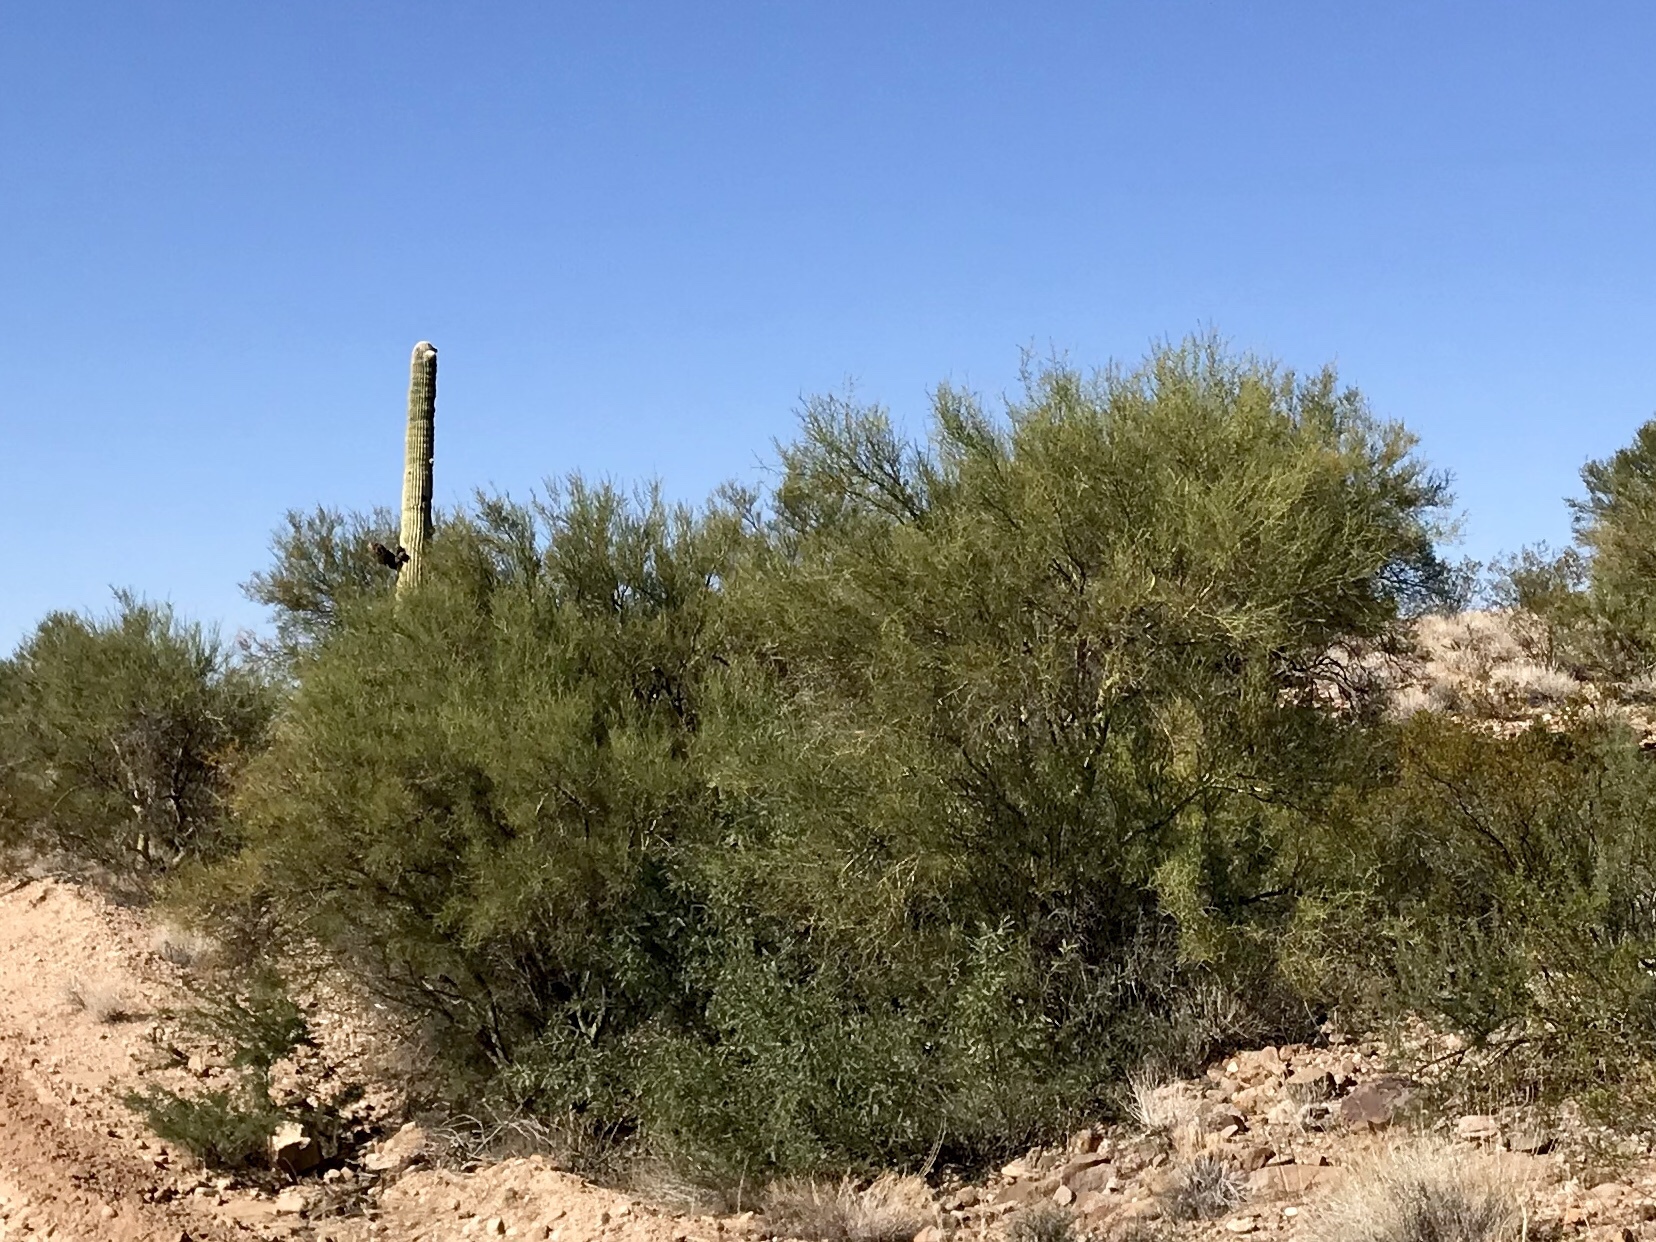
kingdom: Plantae
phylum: Tracheophyta
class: Magnoliopsida
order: Fabales
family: Fabaceae
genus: Parkinsonia
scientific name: Parkinsonia microphylla
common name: Yellow paloverde
